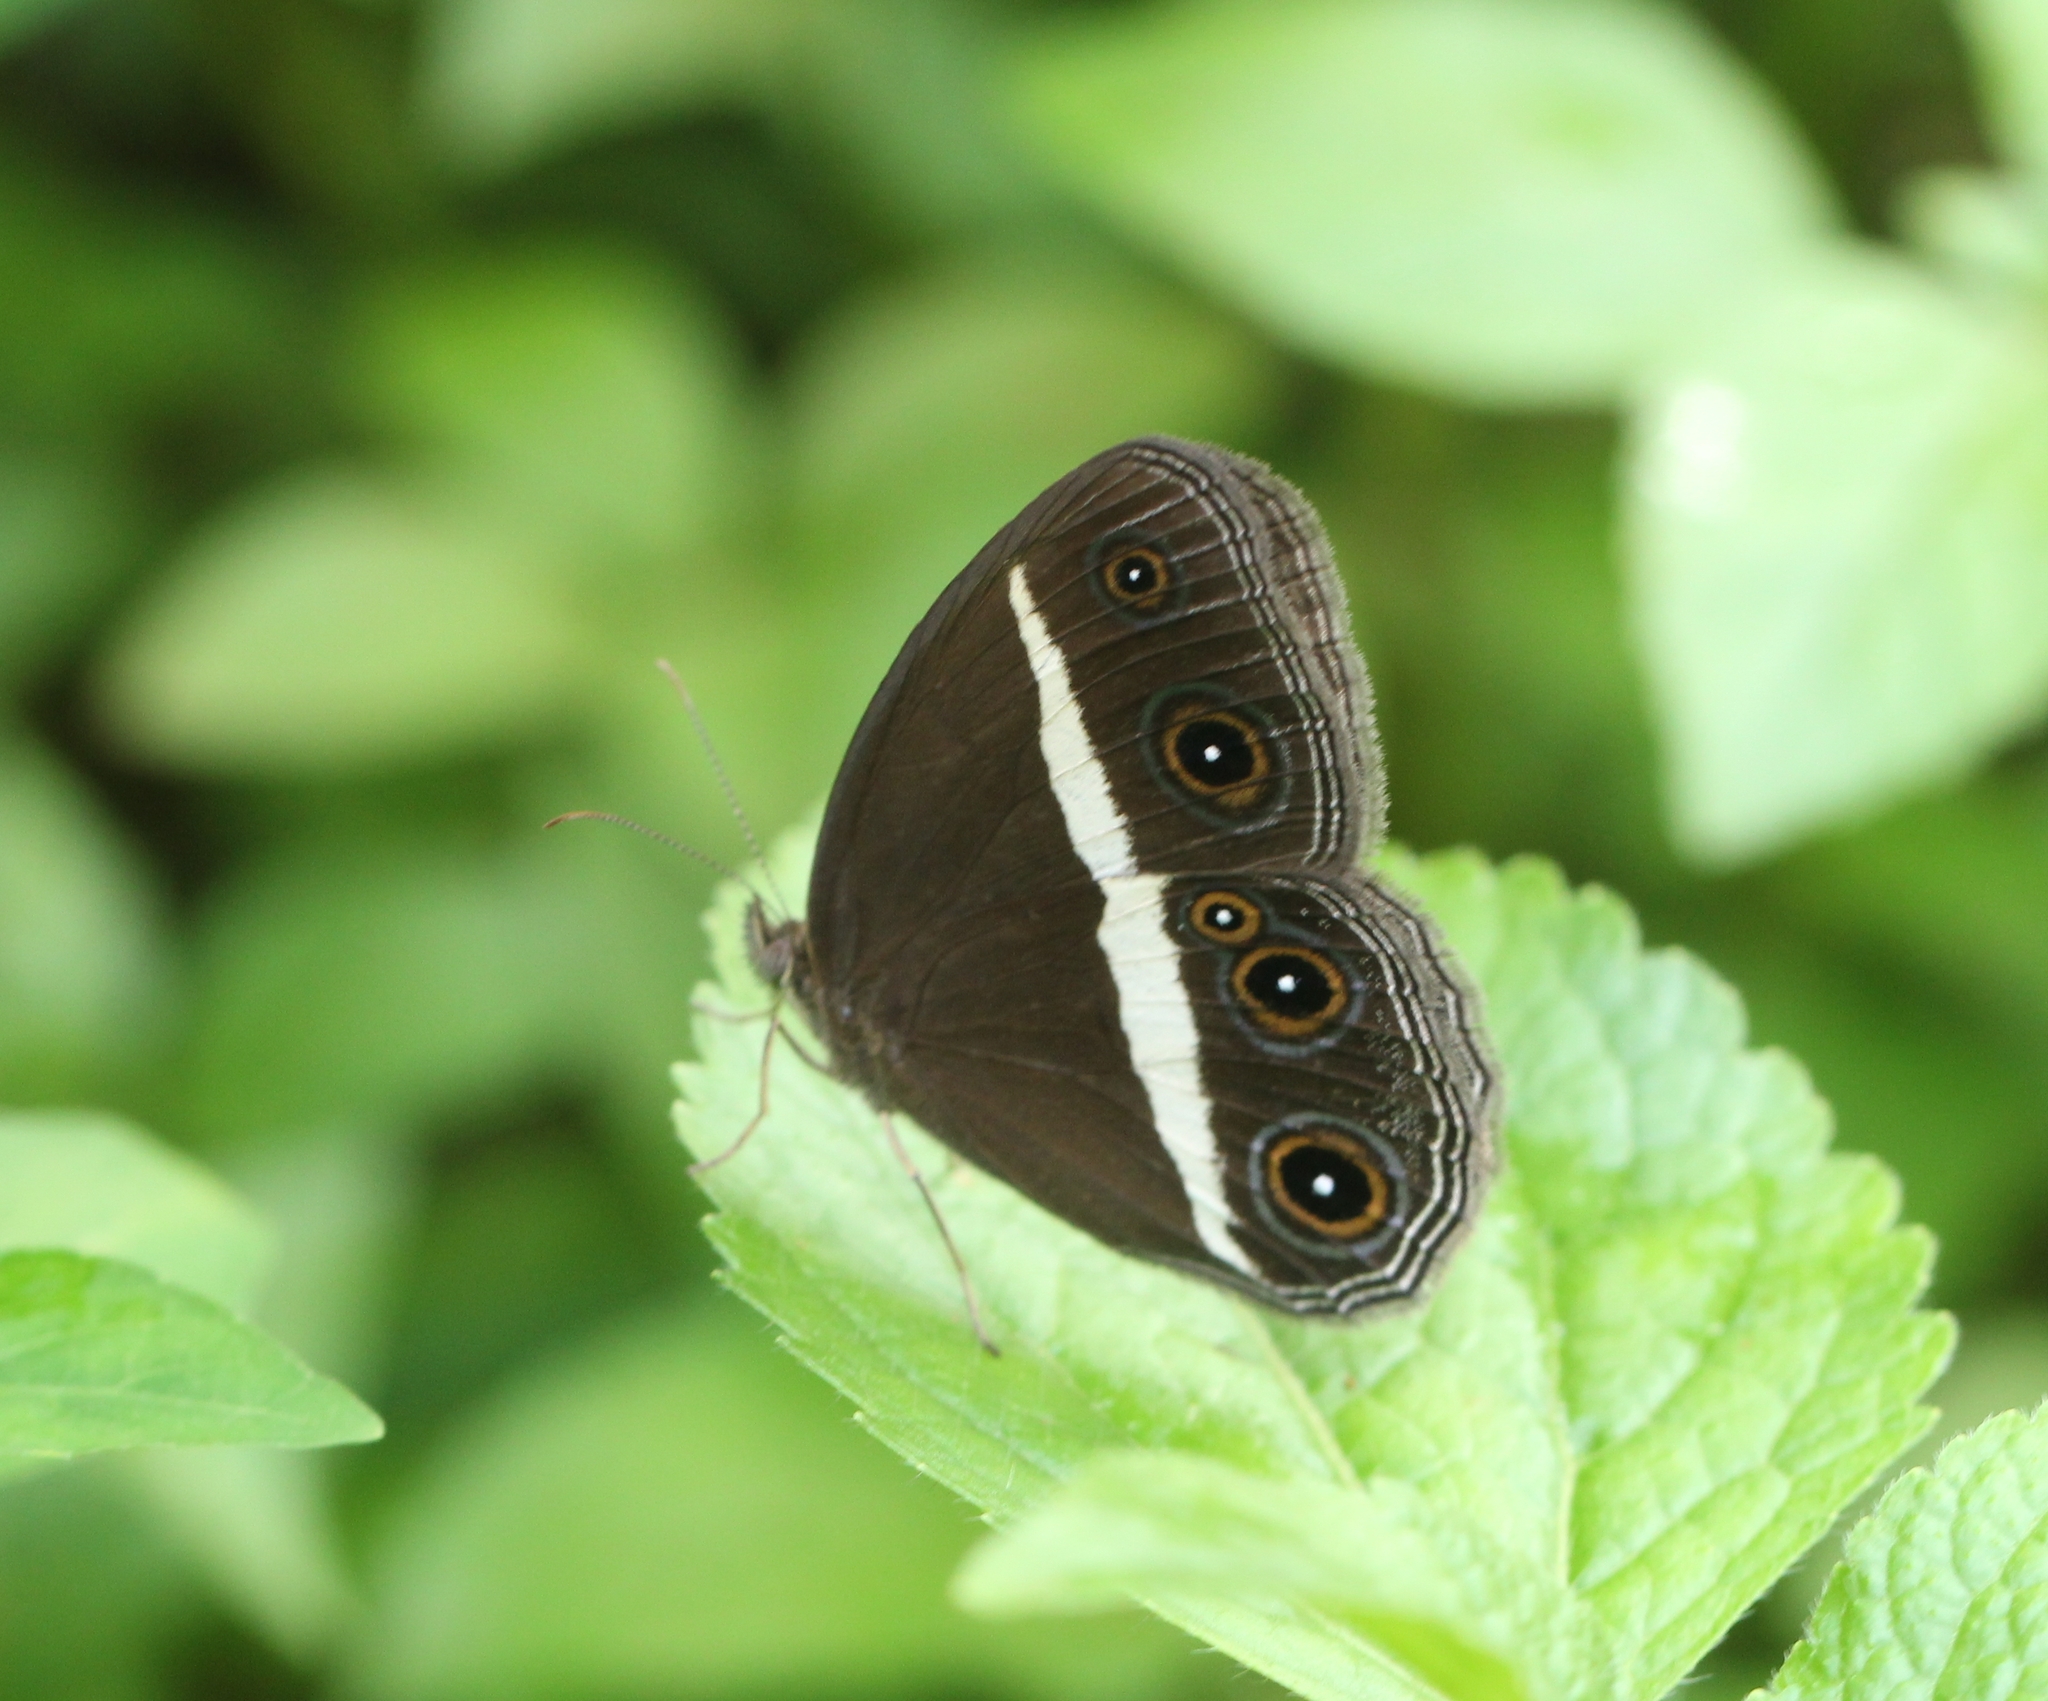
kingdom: Animalia
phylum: Arthropoda
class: Insecta
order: Lepidoptera
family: Nymphalidae
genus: Orsotriaena
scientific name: Orsotriaena medus
